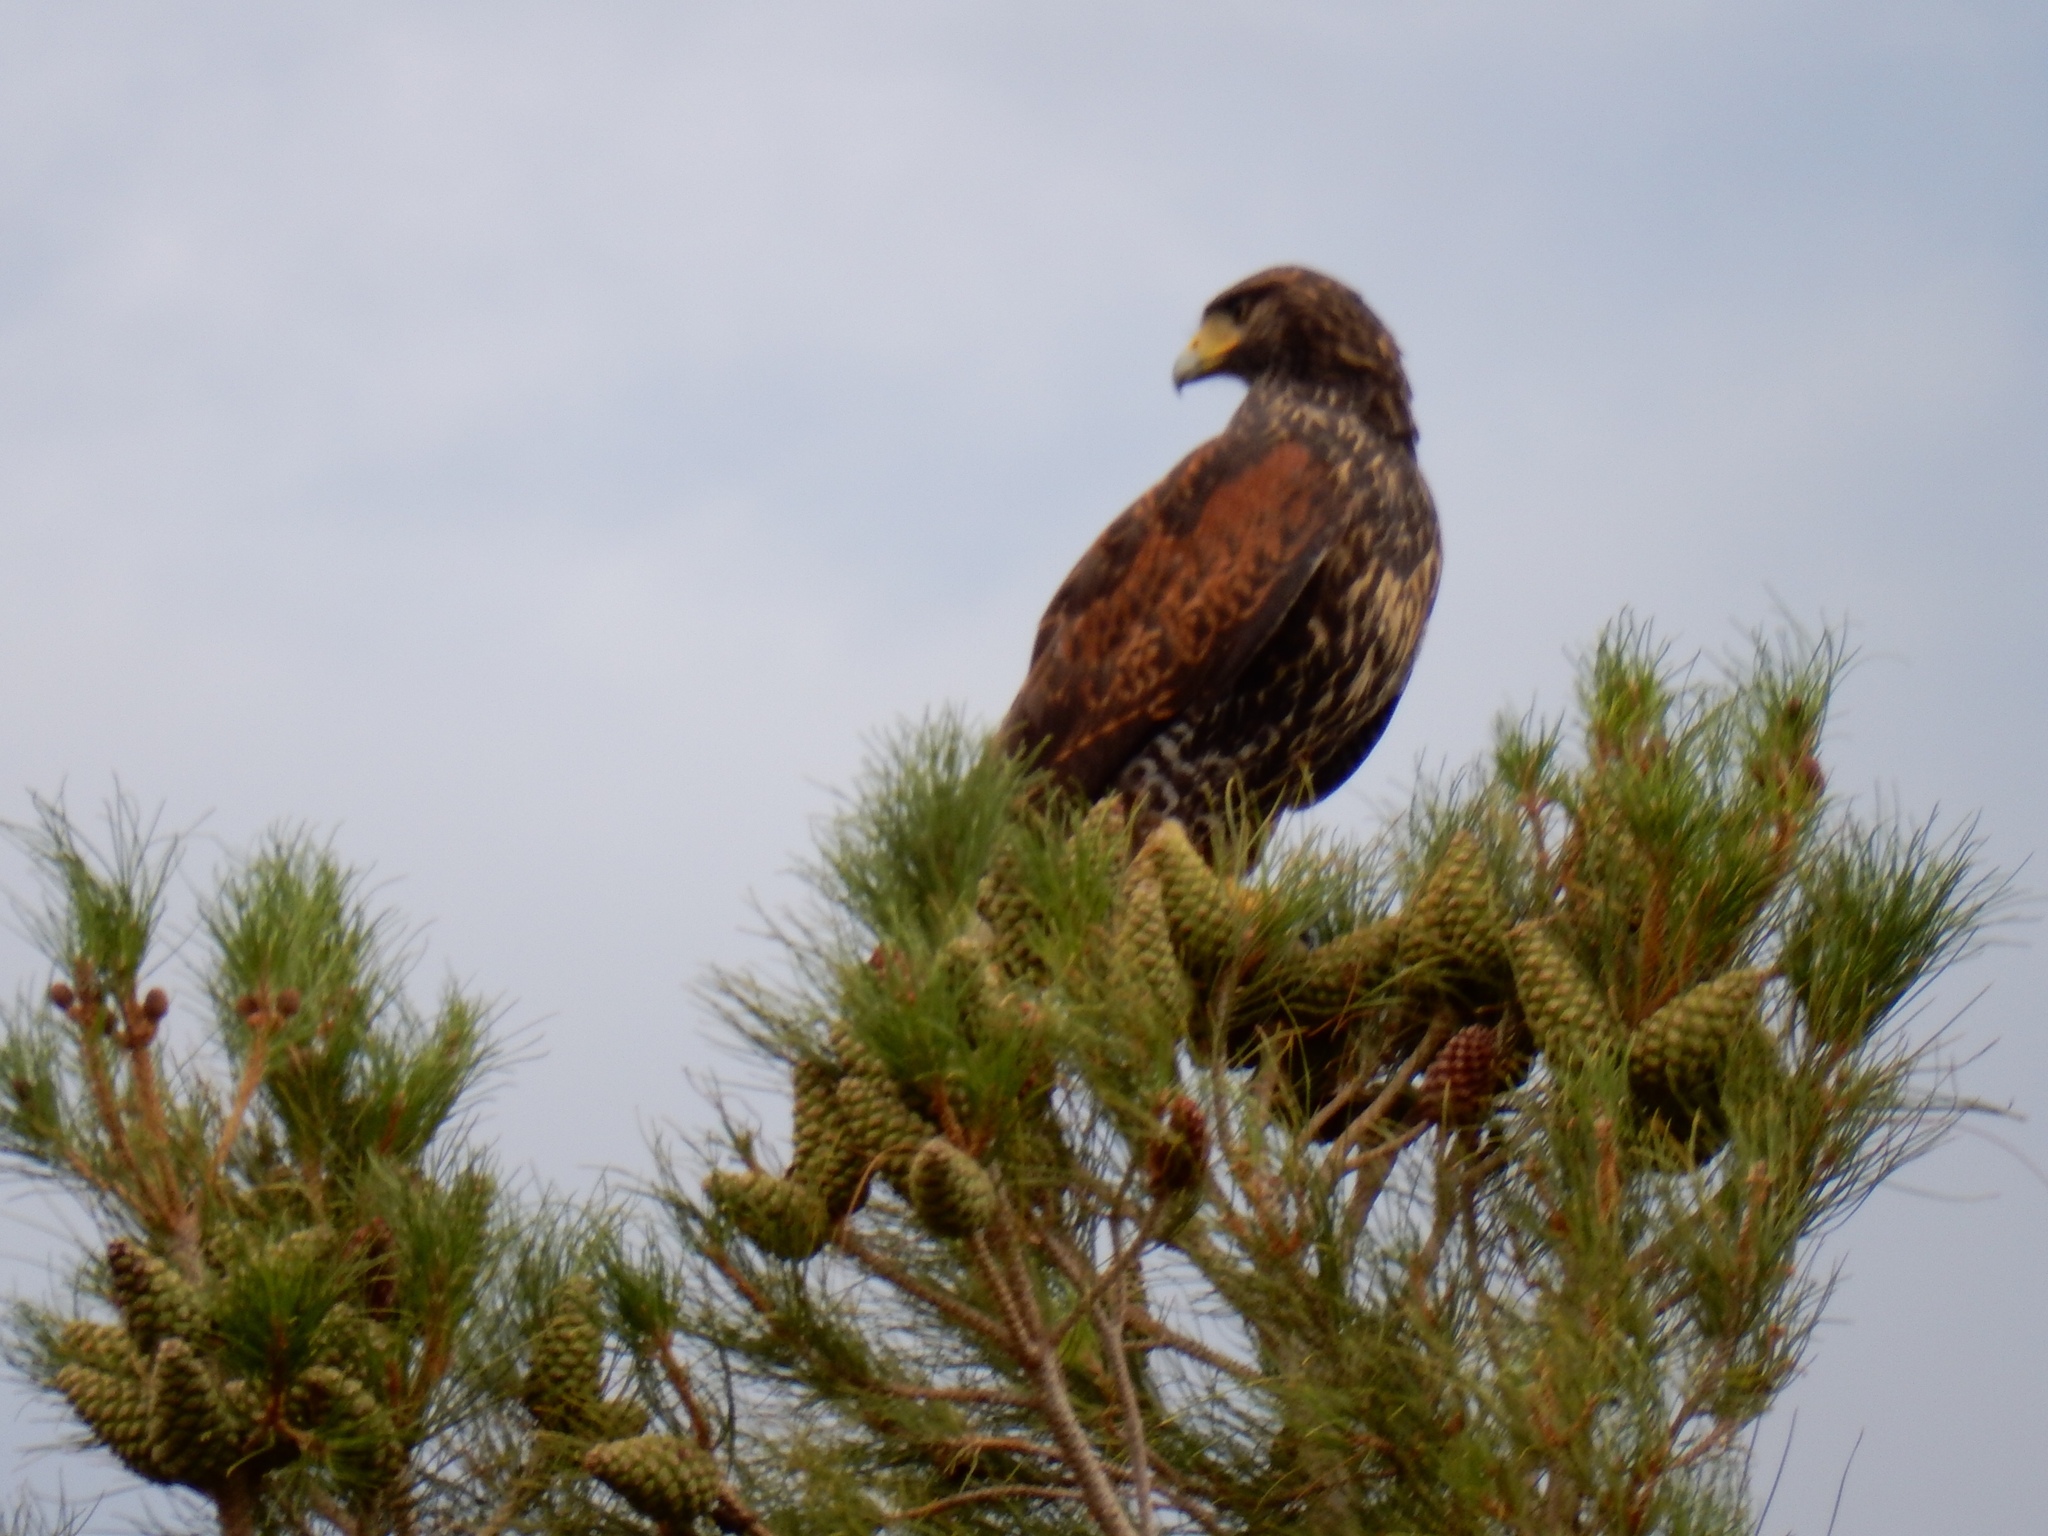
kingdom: Animalia
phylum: Chordata
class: Aves
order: Accipitriformes
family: Accipitridae
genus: Parabuteo
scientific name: Parabuteo unicinctus
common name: Harris's hawk
